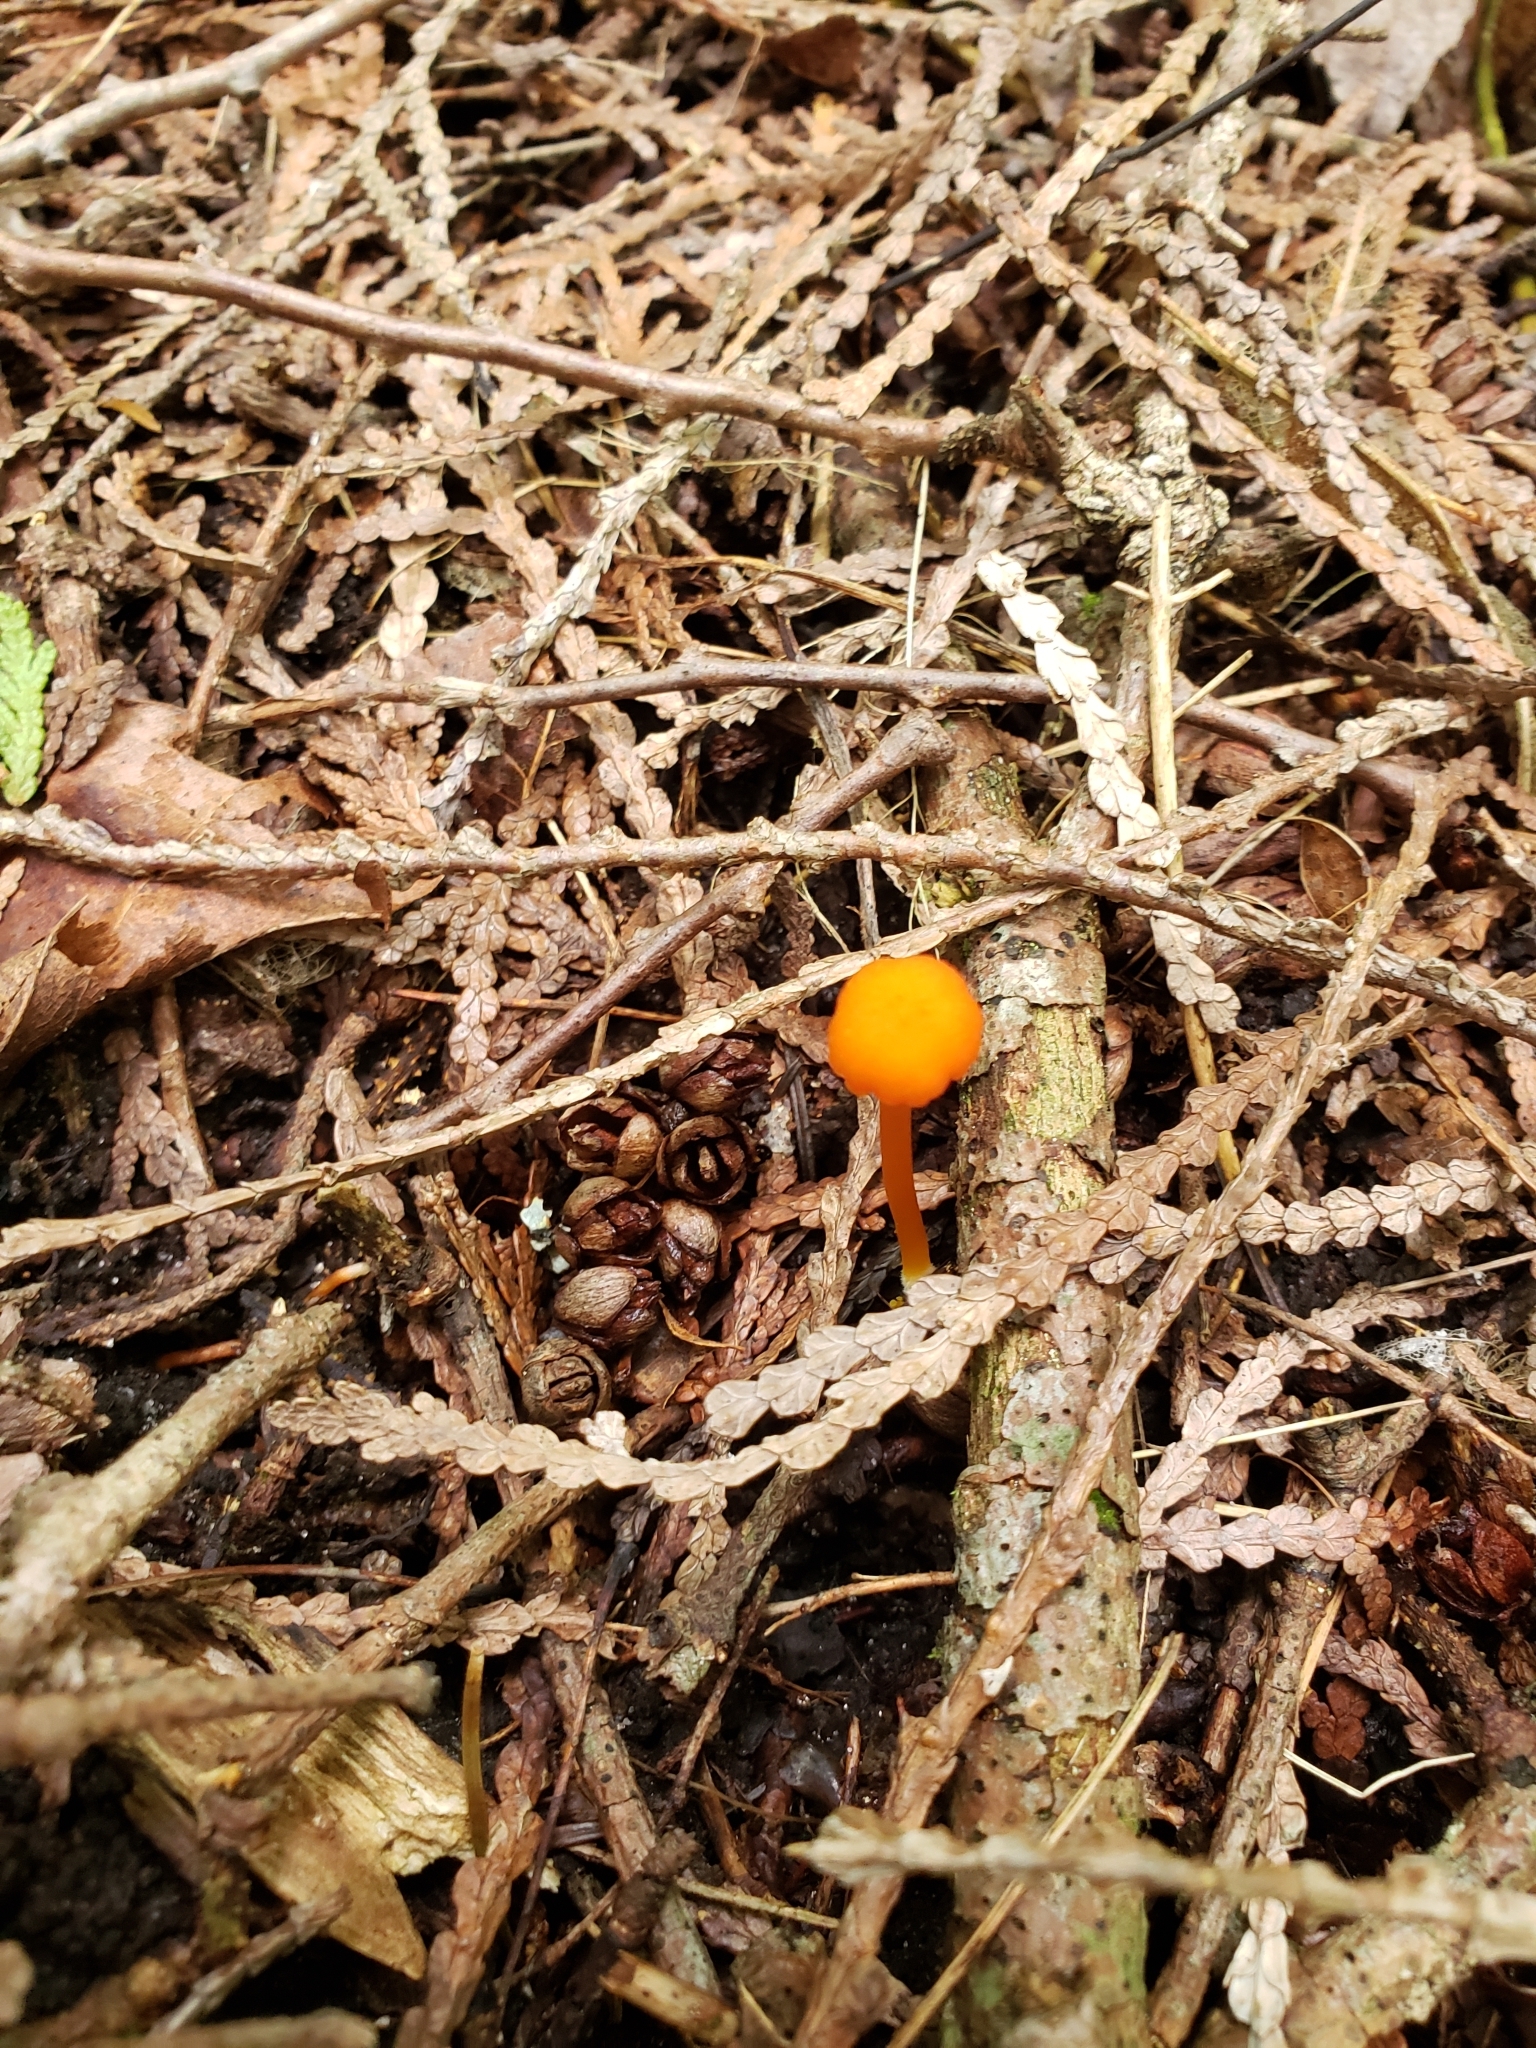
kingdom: Fungi
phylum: Basidiomycota
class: Agaricomycetes
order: Agaricales
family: Hygrophoraceae
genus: Hygrocybe
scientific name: Hygrocybe miniata
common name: Vermilion waxcap
